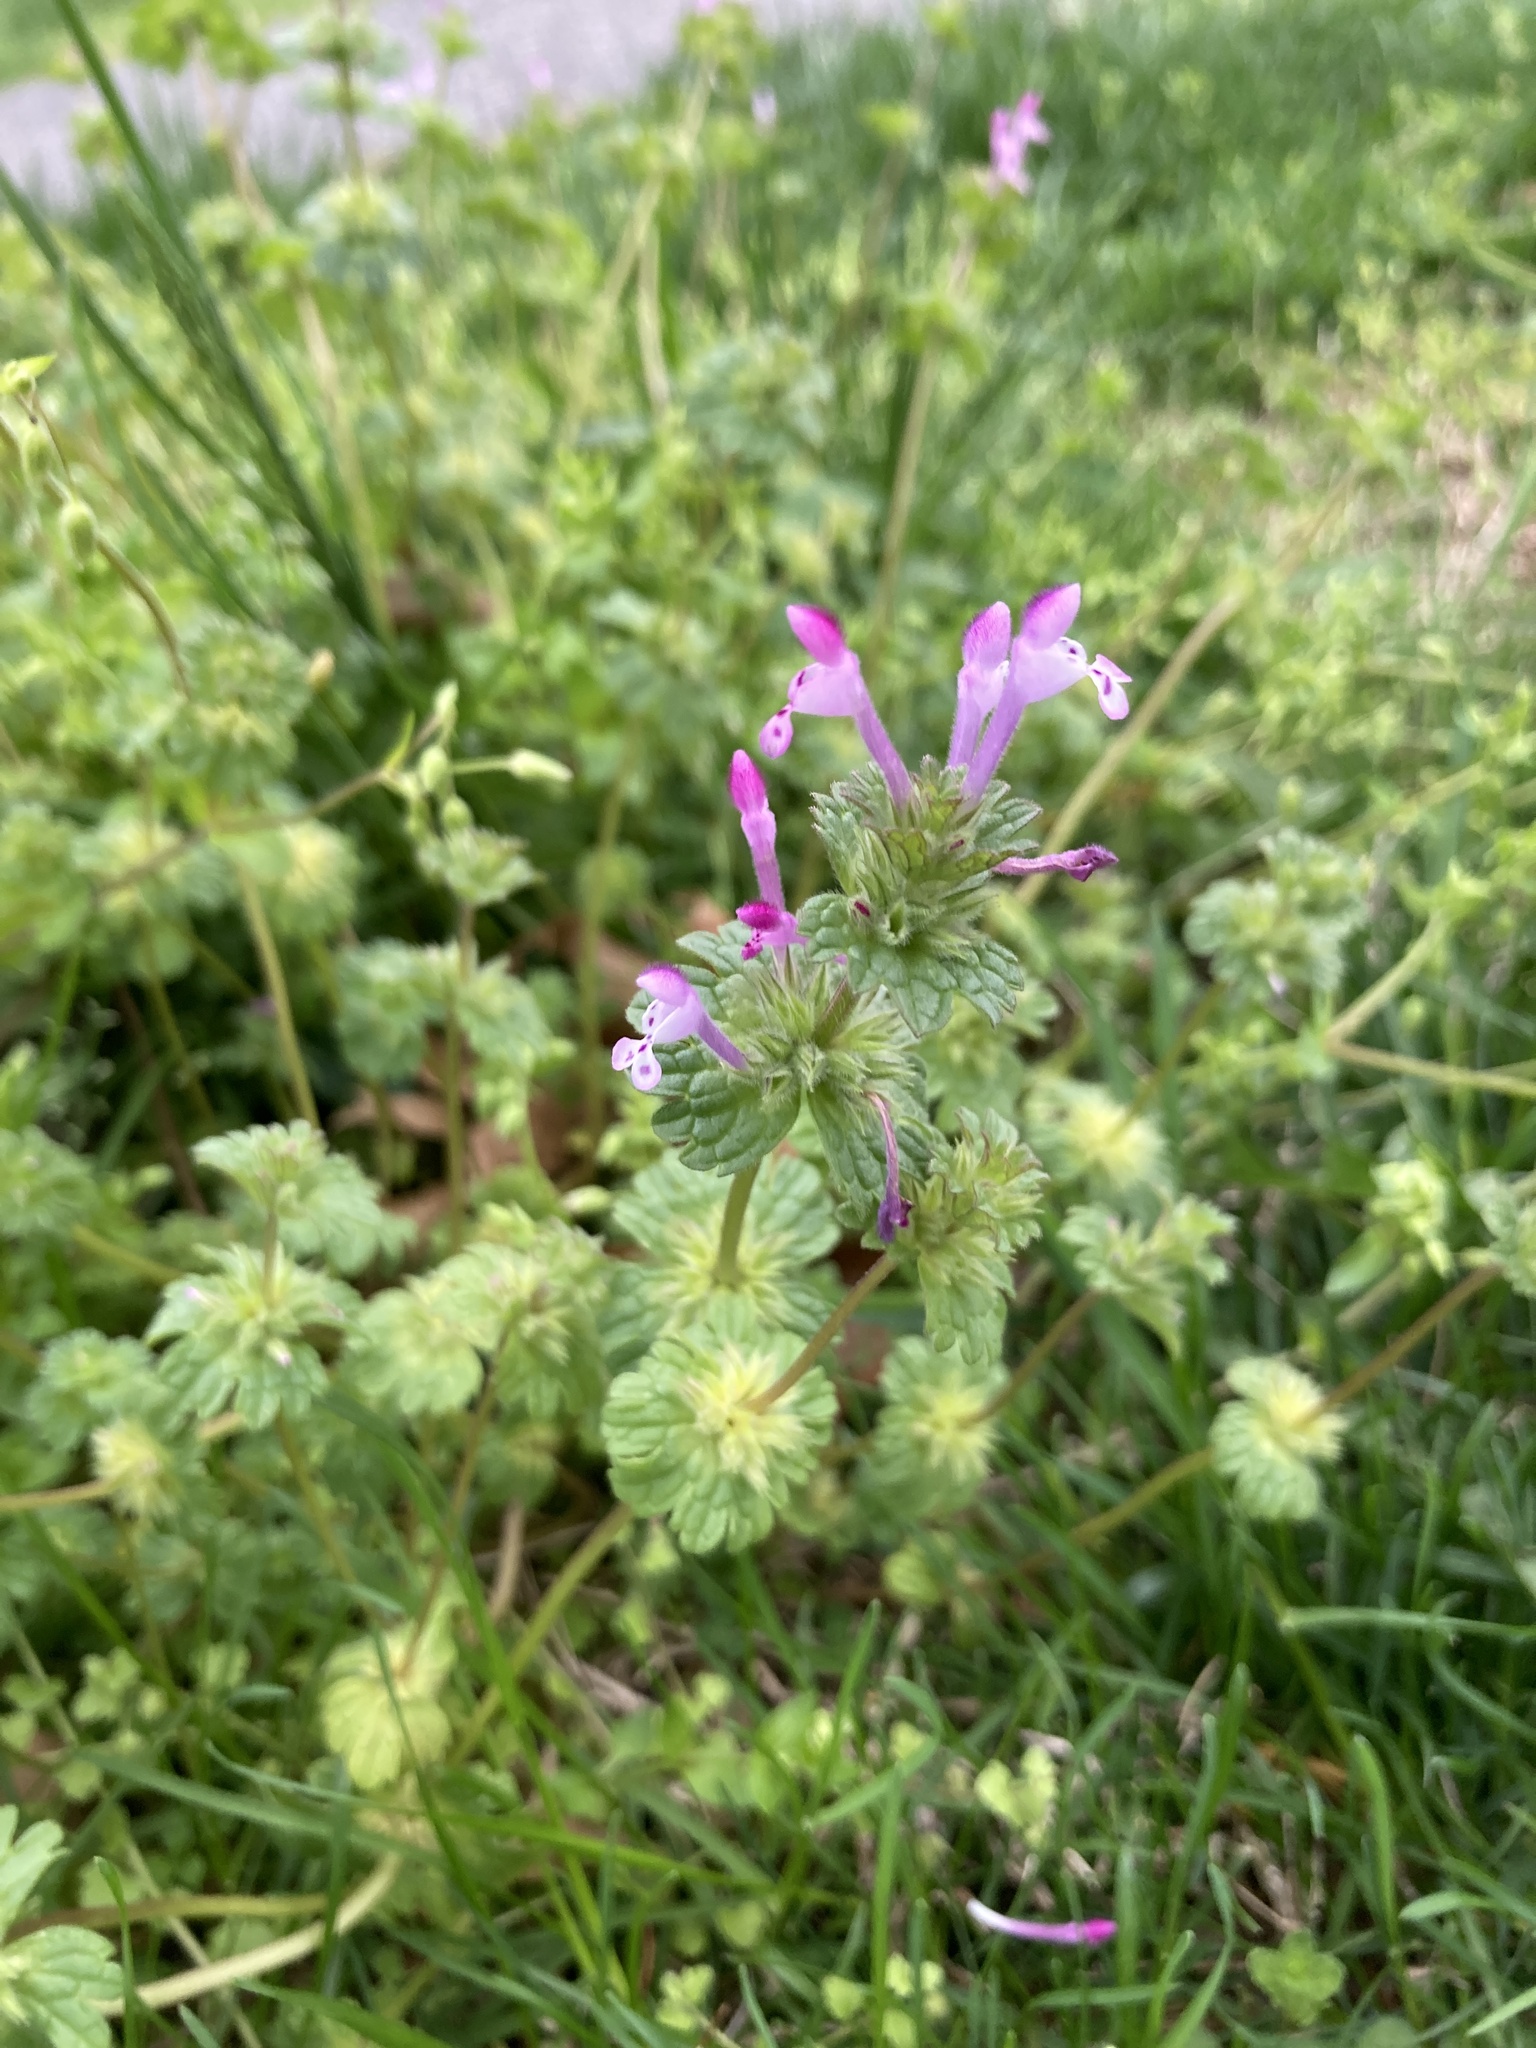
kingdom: Plantae
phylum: Tracheophyta
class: Magnoliopsida
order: Lamiales
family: Lamiaceae
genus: Lamium
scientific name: Lamium amplexicaule
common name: Henbit dead-nettle
